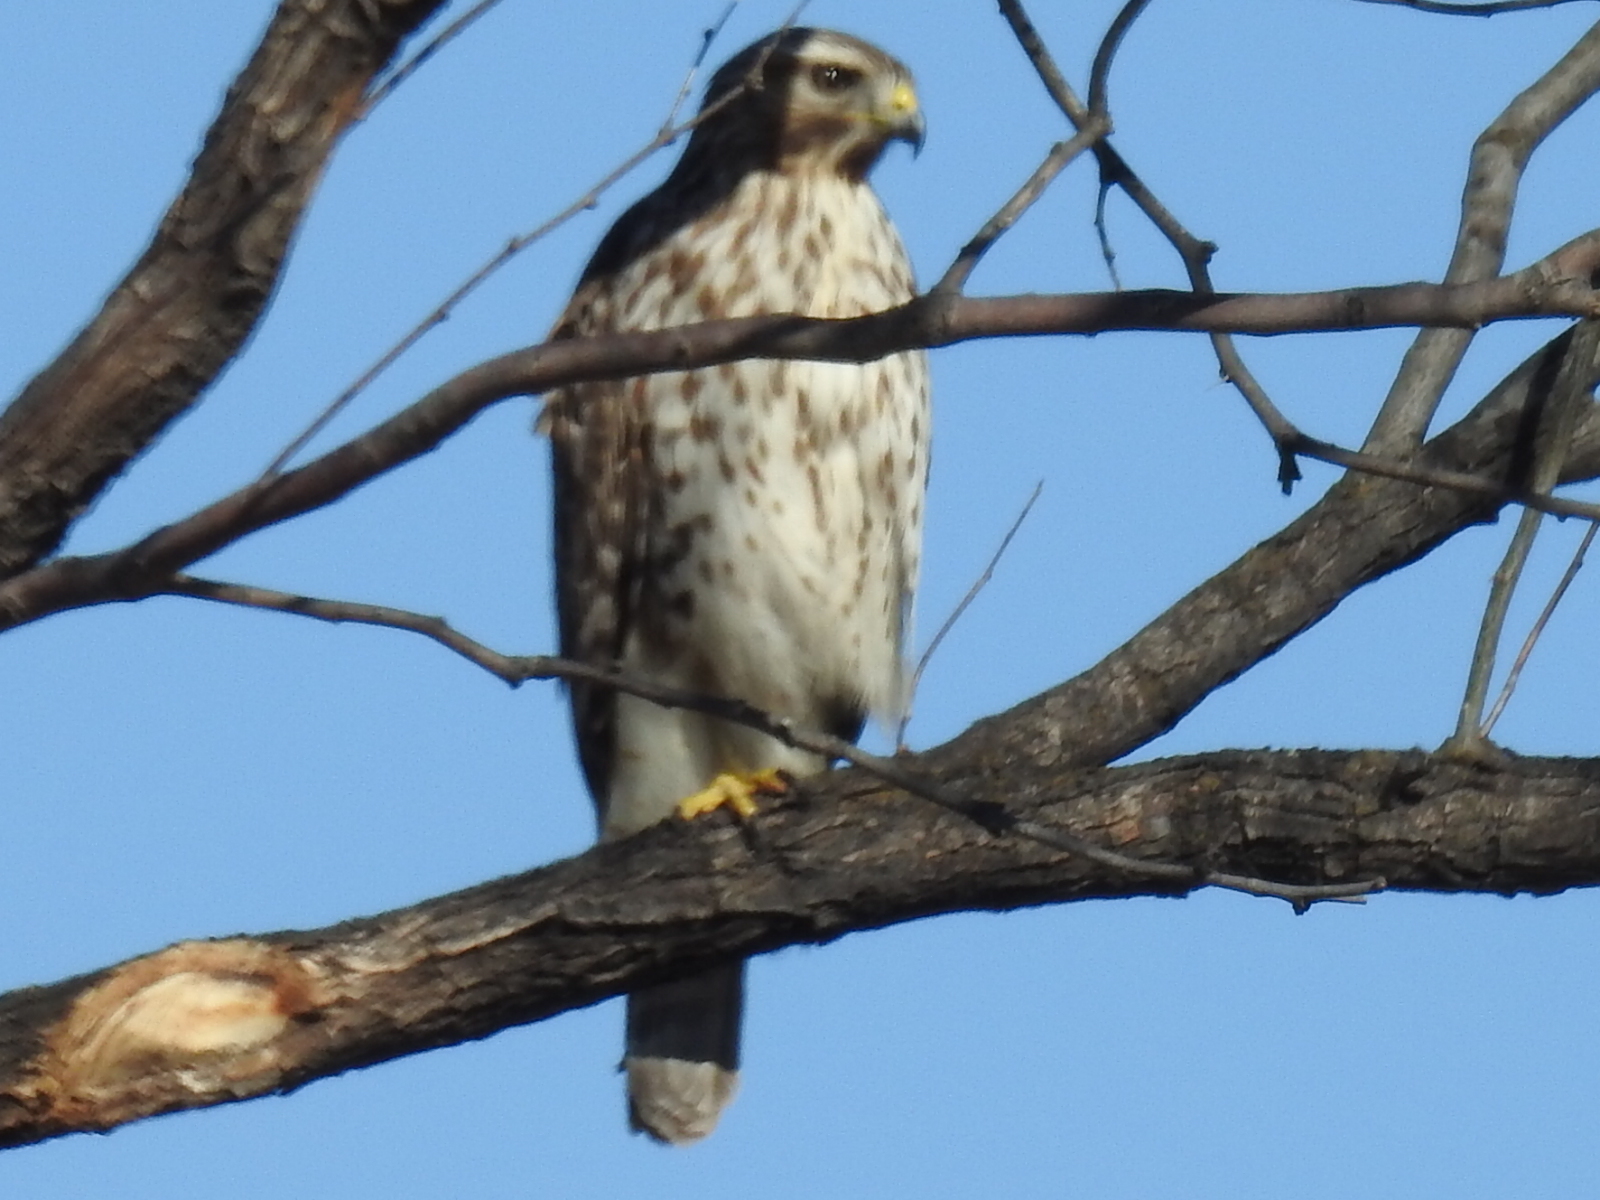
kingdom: Animalia
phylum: Chordata
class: Aves
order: Accipitriformes
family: Accipitridae
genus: Buteo
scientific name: Buteo lineatus
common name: Red-shouldered hawk
